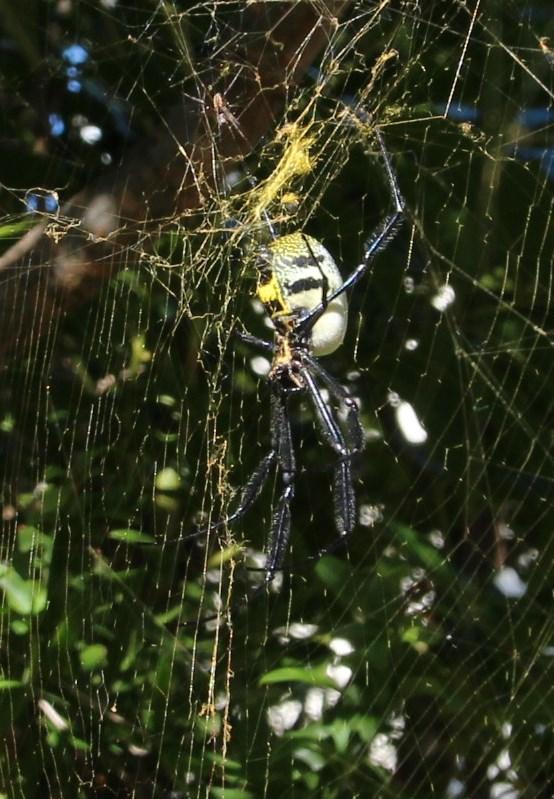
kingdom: Animalia
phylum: Arthropoda
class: Arachnida
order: Araneae
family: Araneidae
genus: Trichonephila
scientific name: Trichonephila fenestrata
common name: Hairy golden orb weaver
